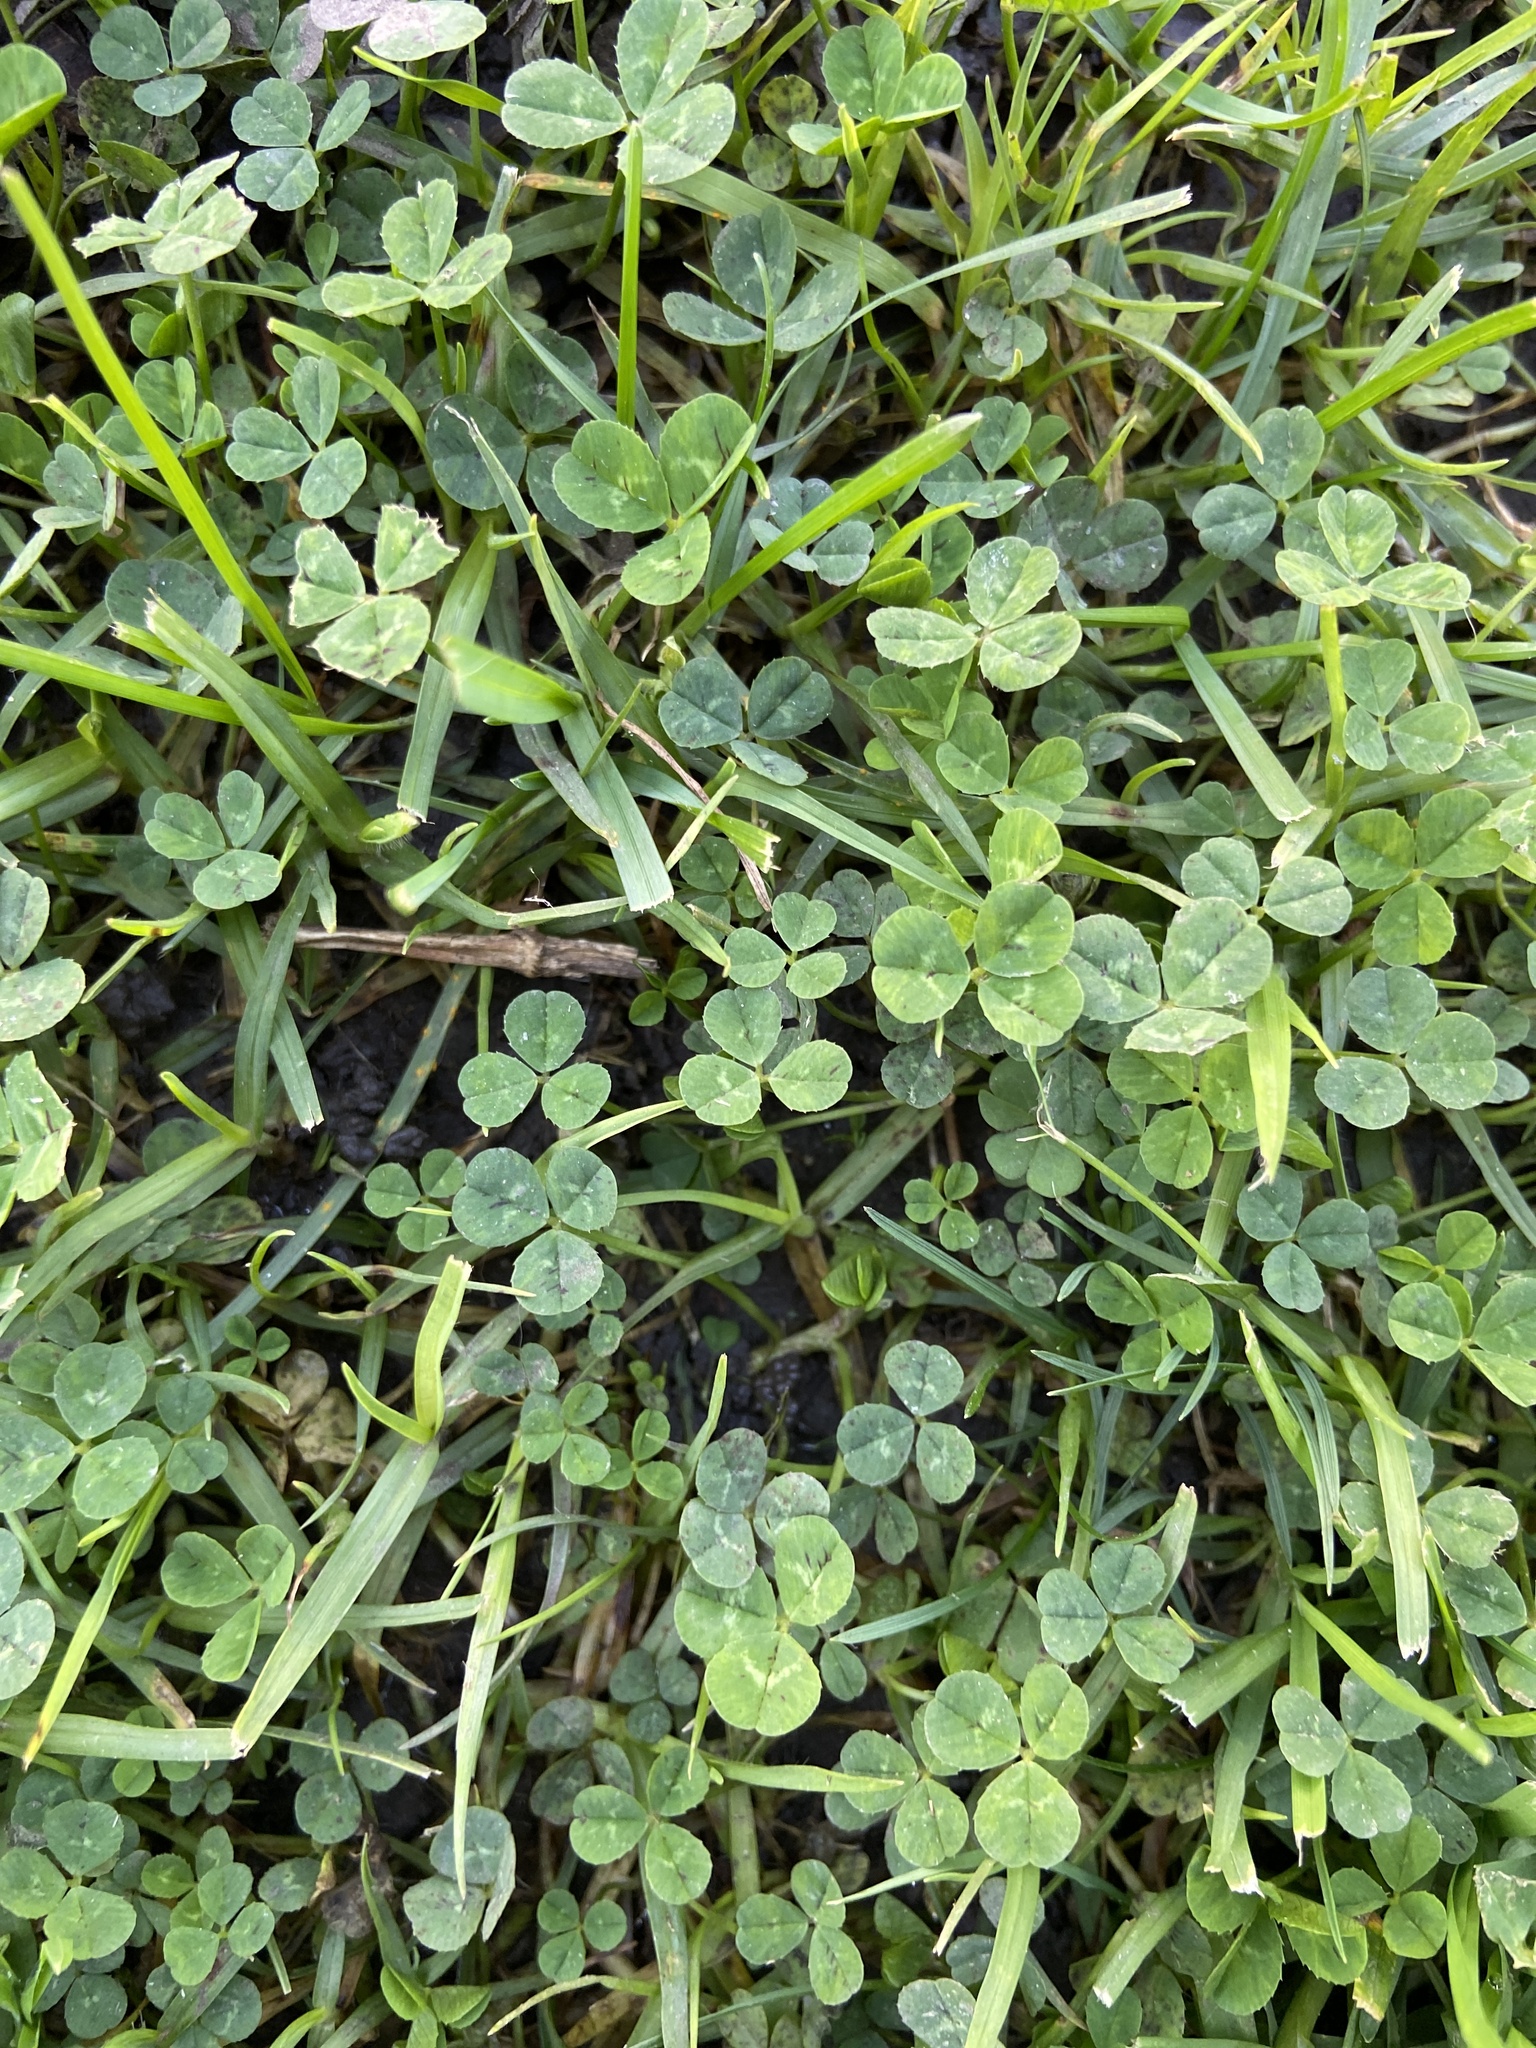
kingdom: Plantae
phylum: Tracheophyta
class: Magnoliopsida
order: Fabales
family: Fabaceae
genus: Trifolium
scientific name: Trifolium repens
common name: White clover
